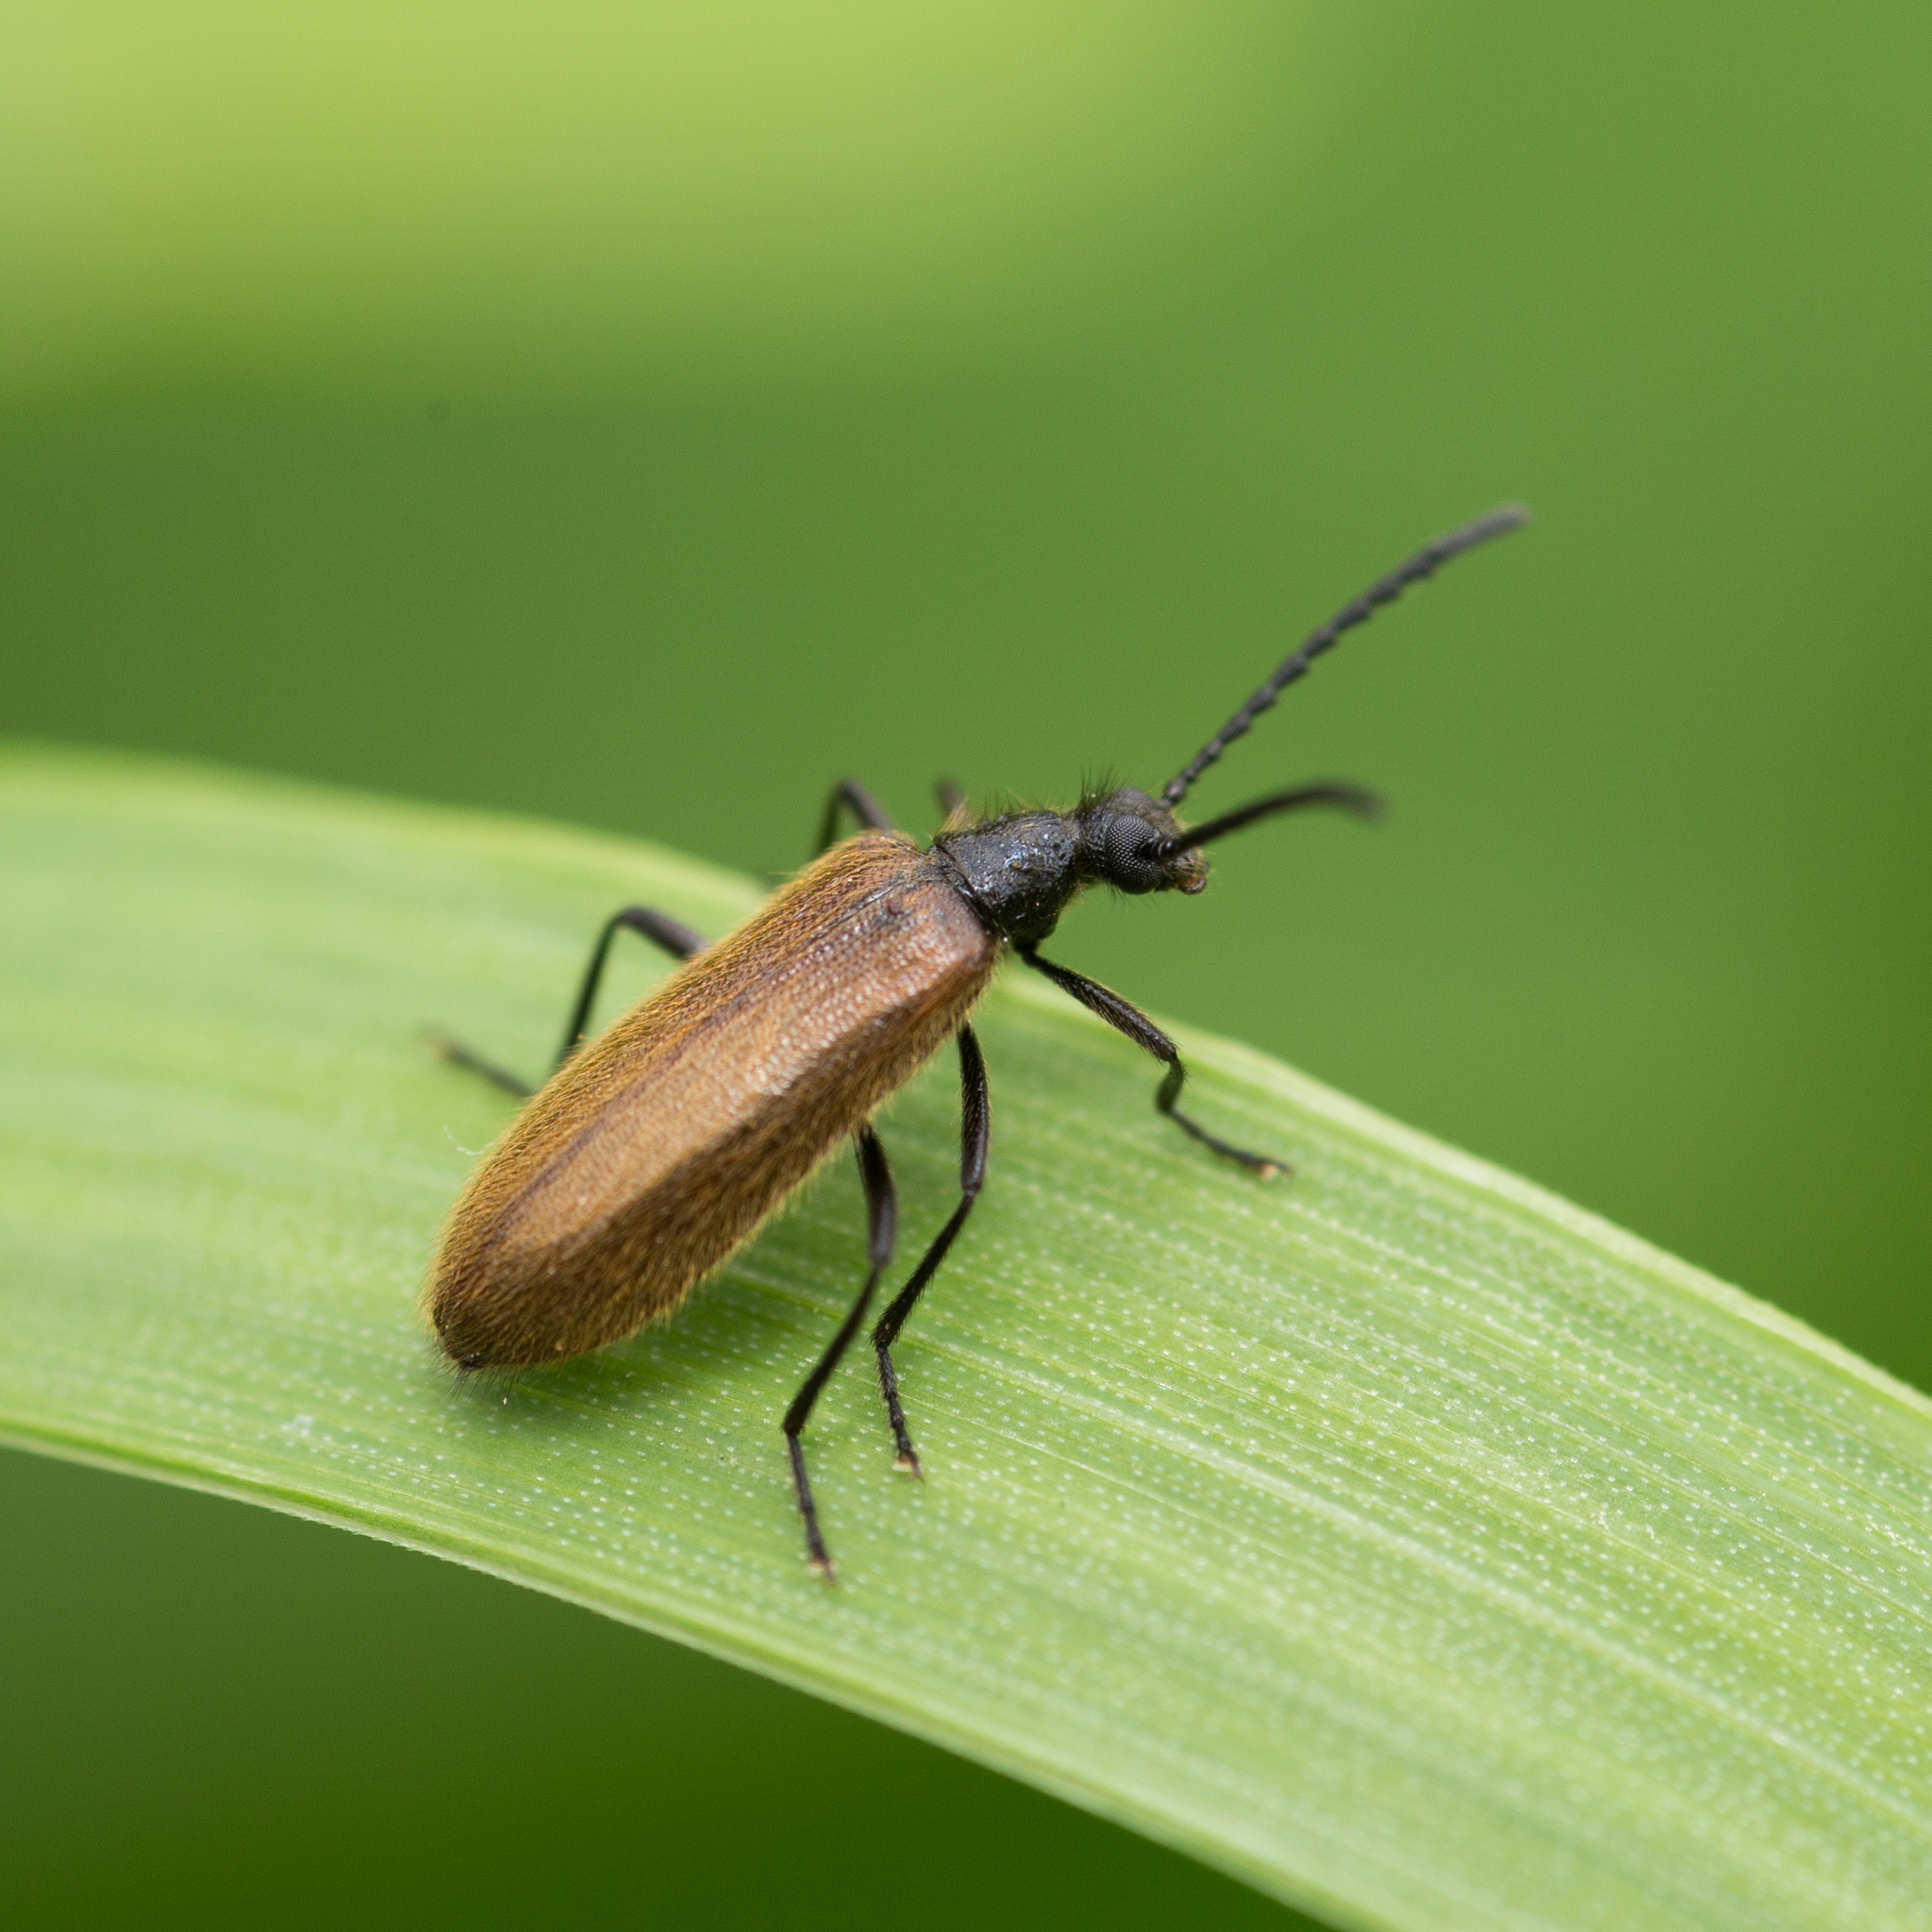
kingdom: Animalia
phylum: Arthropoda
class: Insecta
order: Coleoptera
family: Tenebrionidae
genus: Lagria
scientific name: Lagria hirta
